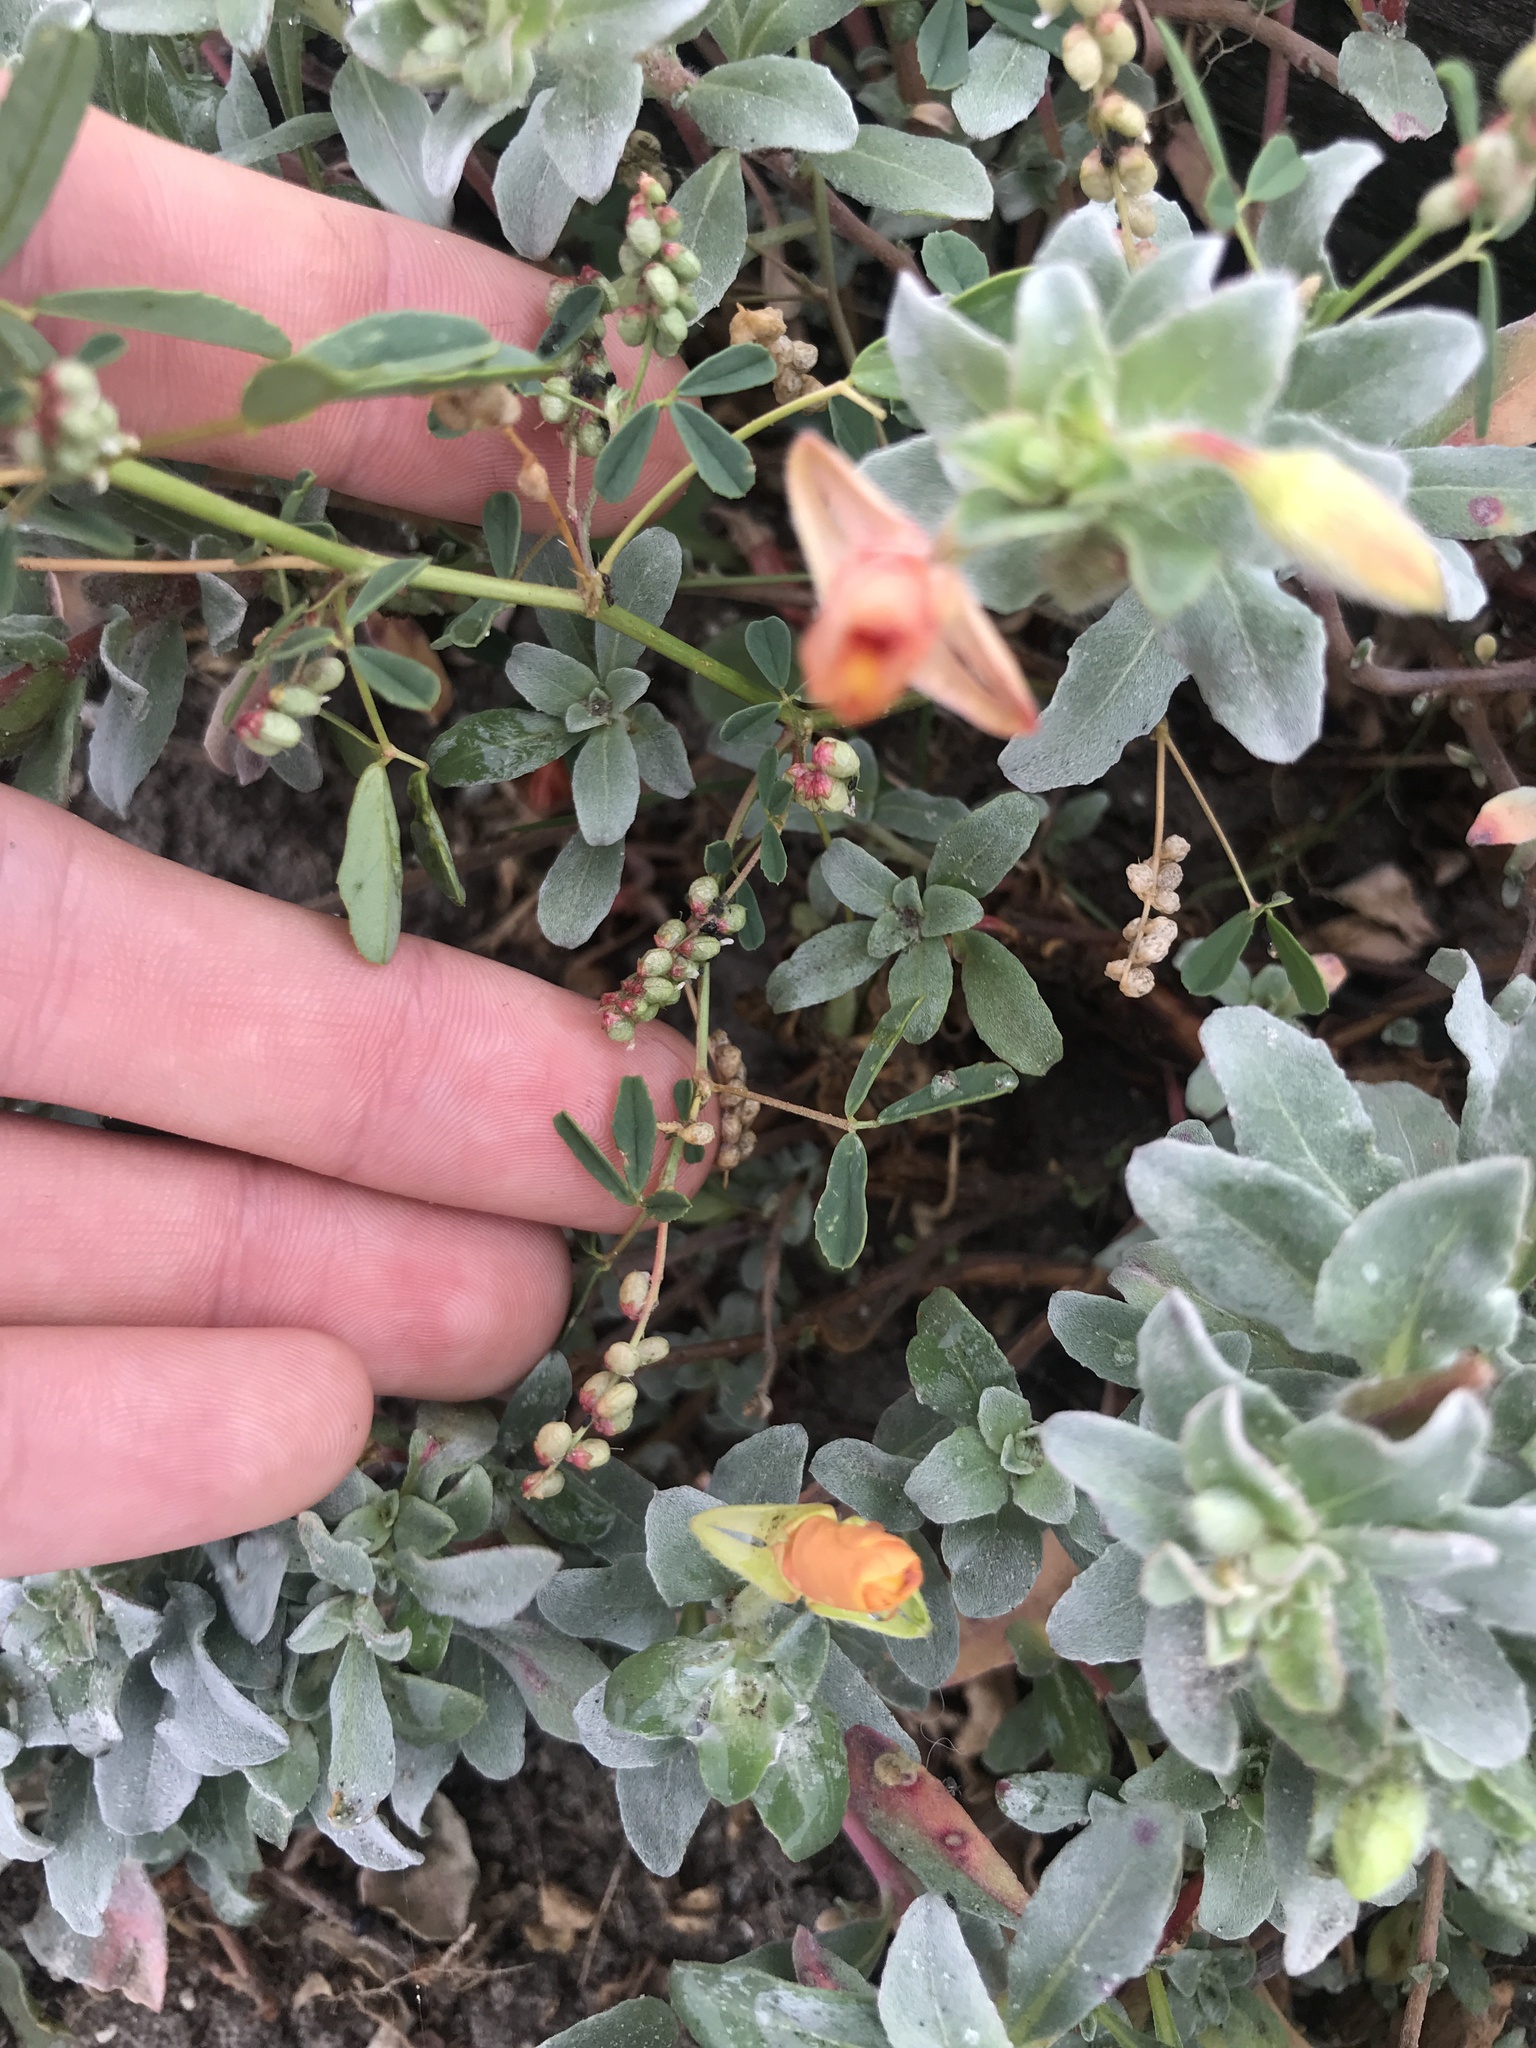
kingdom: Plantae
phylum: Tracheophyta
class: Magnoliopsida
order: Fabales
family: Fabaceae
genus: Melilotus
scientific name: Melilotus indicus
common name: Small melilot
